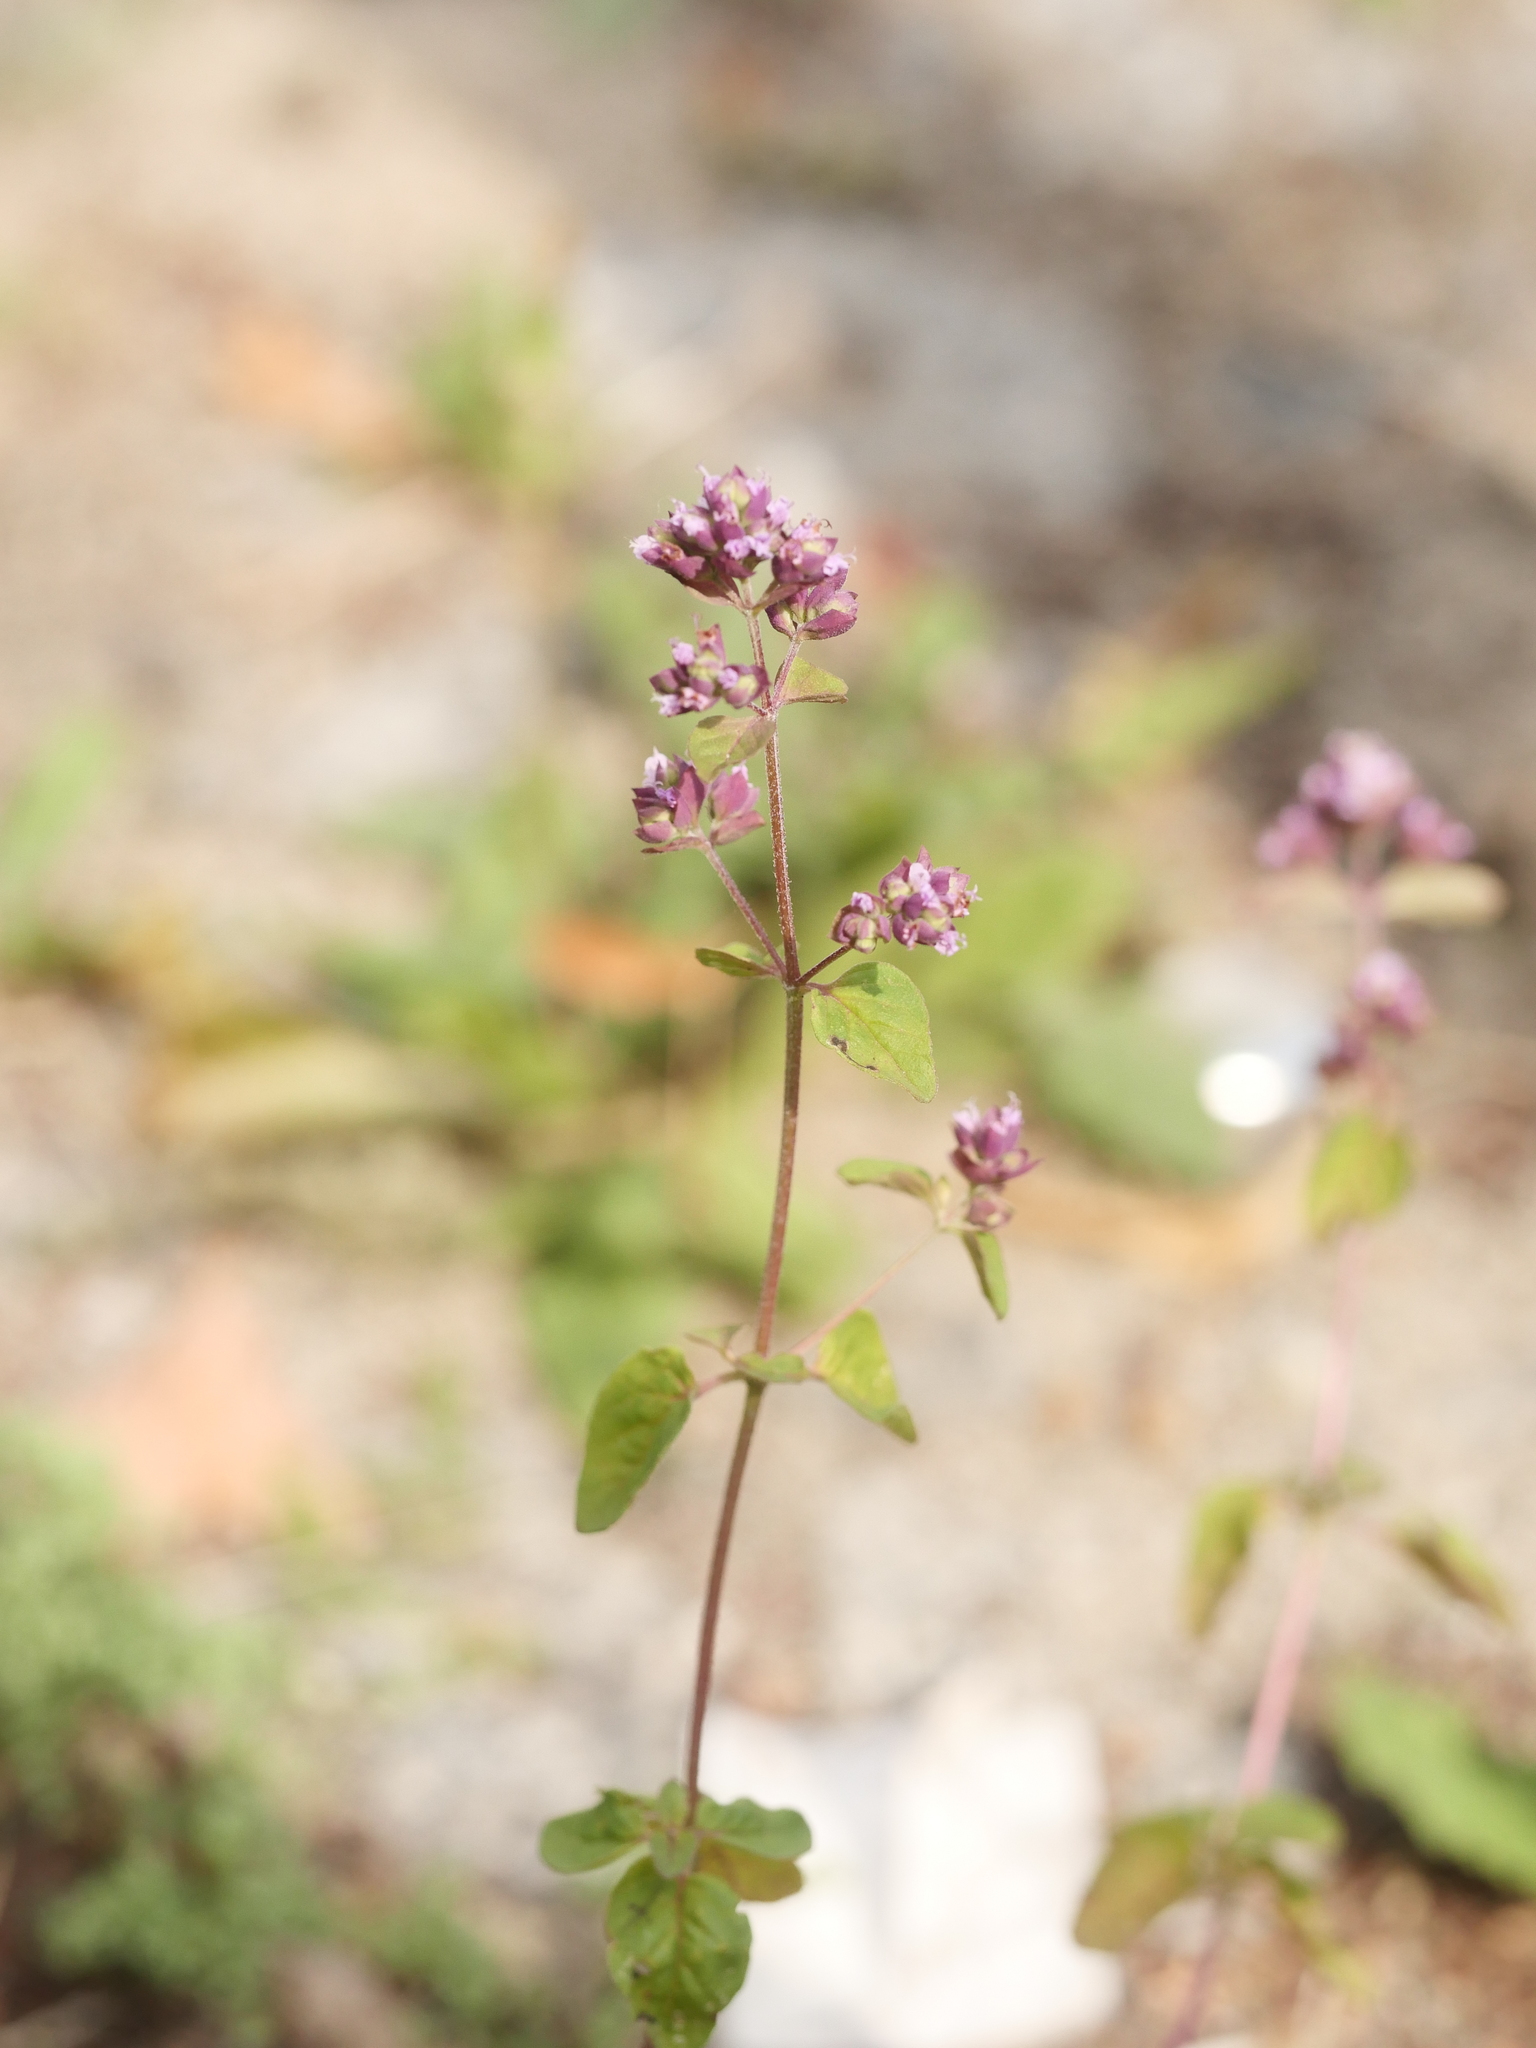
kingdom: Plantae
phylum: Tracheophyta
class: Magnoliopsida
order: Lamiales
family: Lamiaceae
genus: Origanum
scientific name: Origanum vulgare
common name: Wild marjoram
